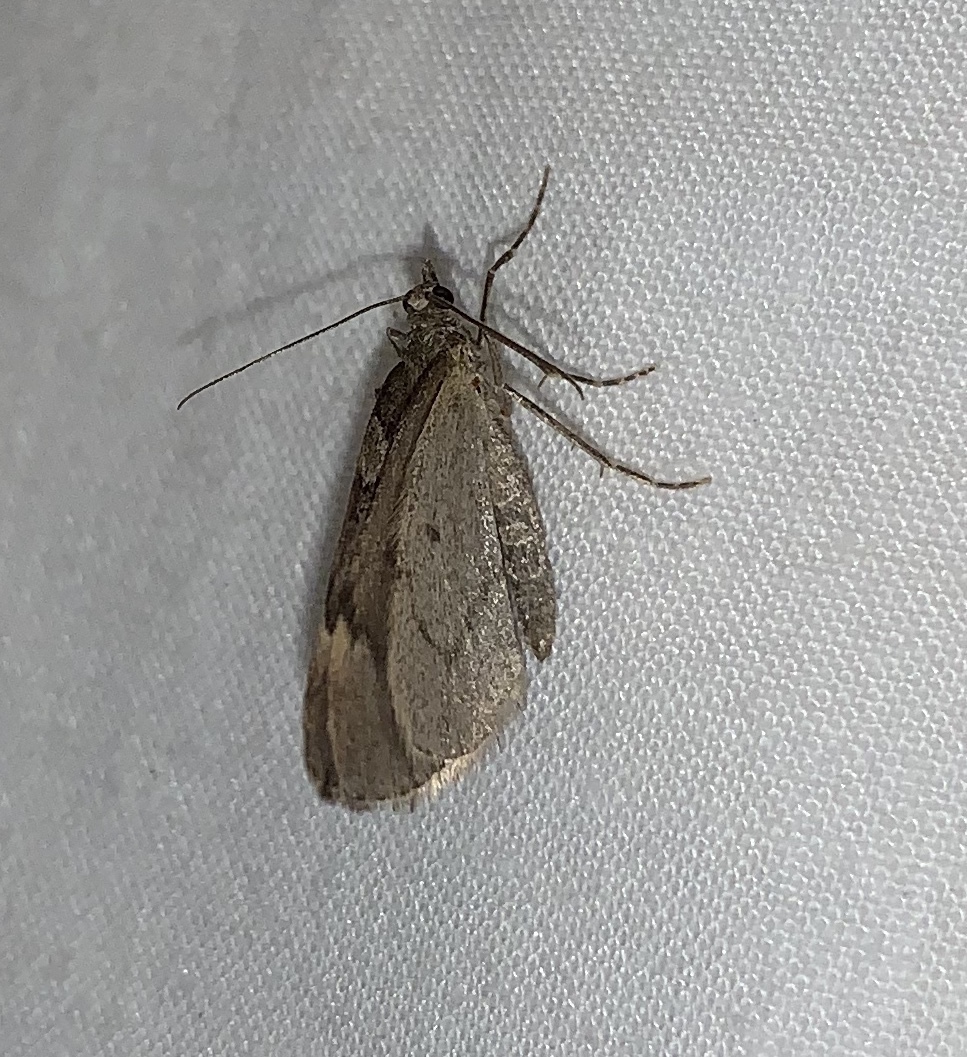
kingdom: Animalia
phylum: Arthropoda
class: Insecta
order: Lepidoptera
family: Geometridae
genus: Thera
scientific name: Thera juniperata
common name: Juniper carpet
